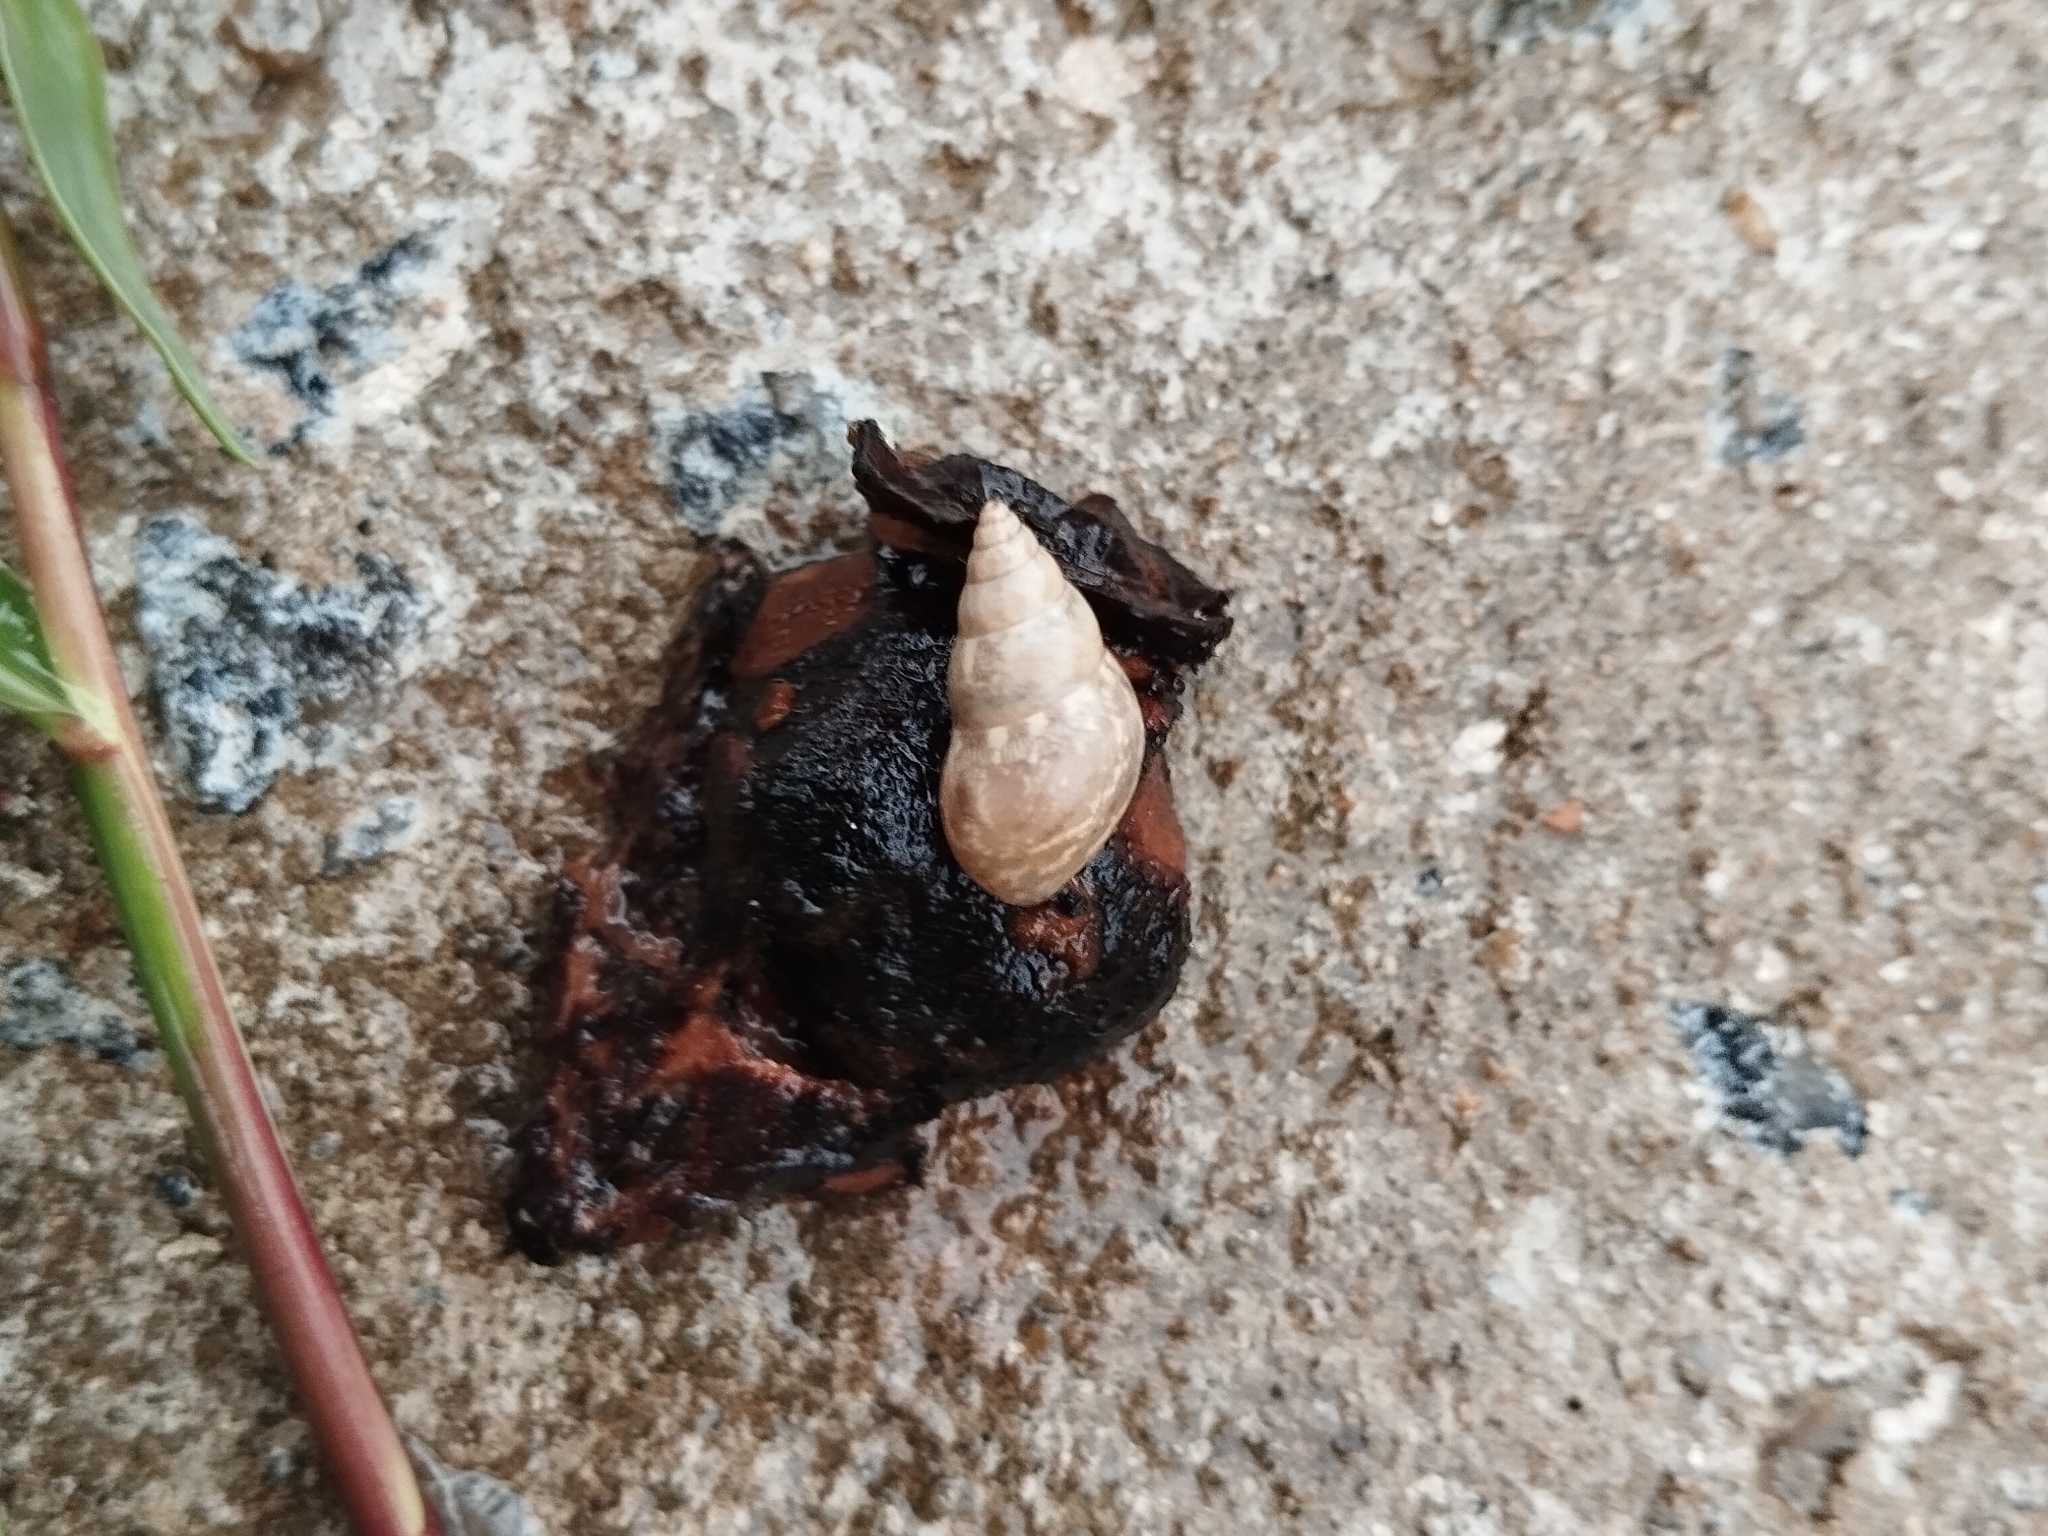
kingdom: Animalia
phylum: Mollusca
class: Gastropoda
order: Stylommatophora
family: Bulimulidae
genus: Bulimulus
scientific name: Bulimulus tenuissimus
